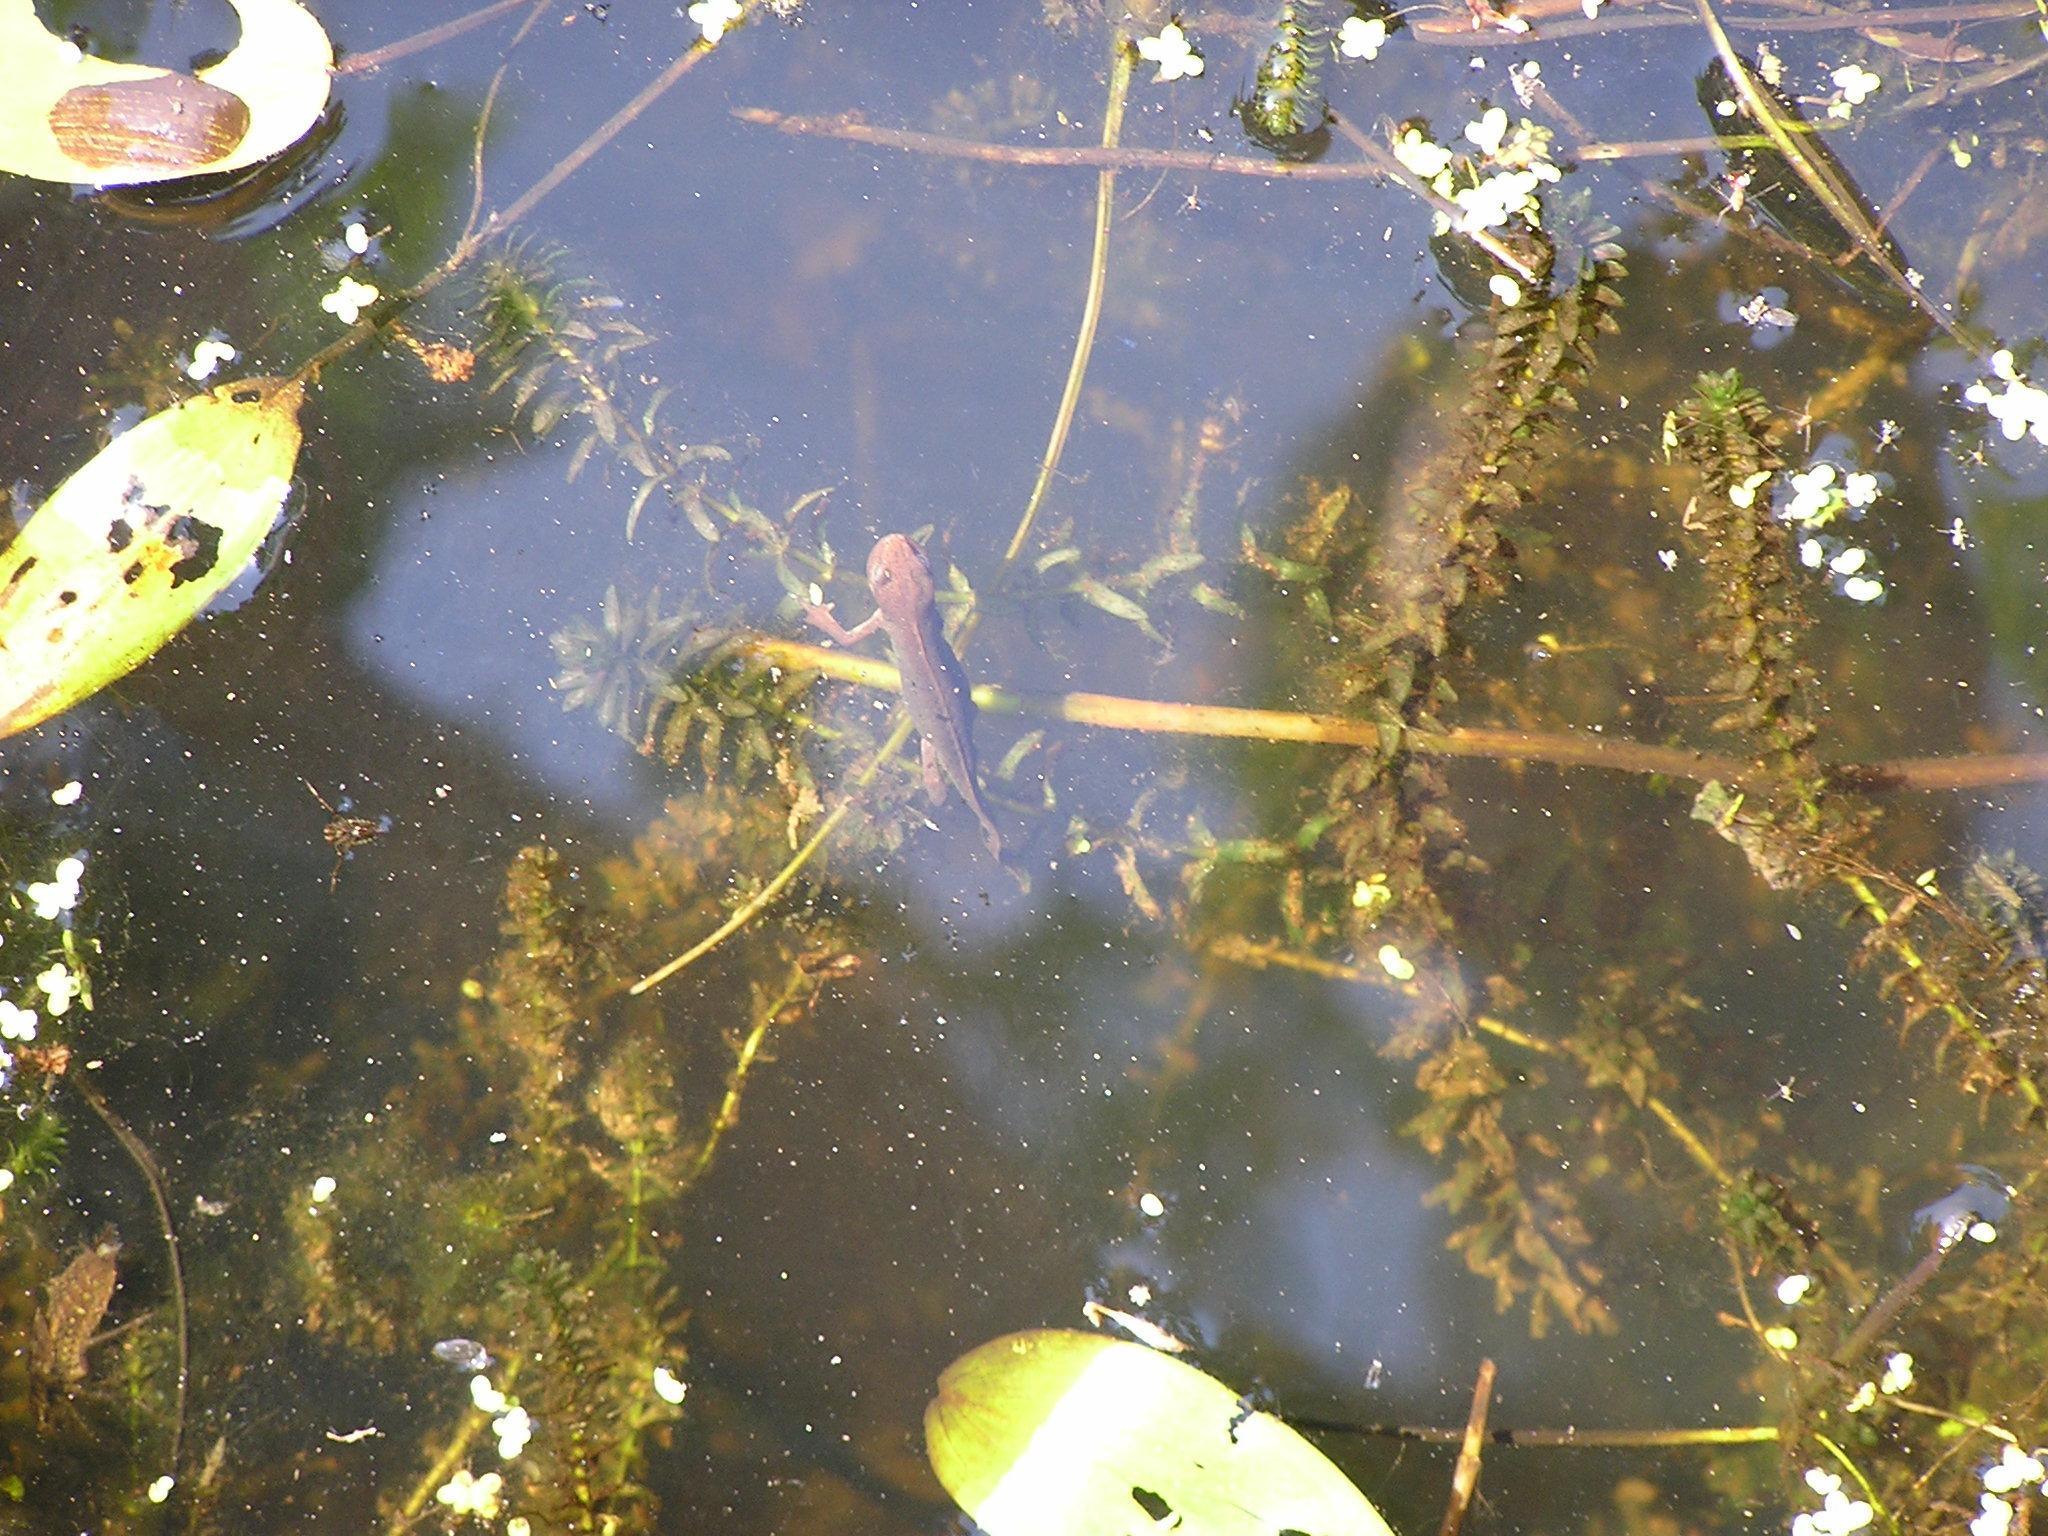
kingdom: Animalia
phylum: Chordata
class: Amphibia
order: Caudata
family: Salamandridae
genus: Triturus
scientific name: Triturus cristatus
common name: Crested newt
